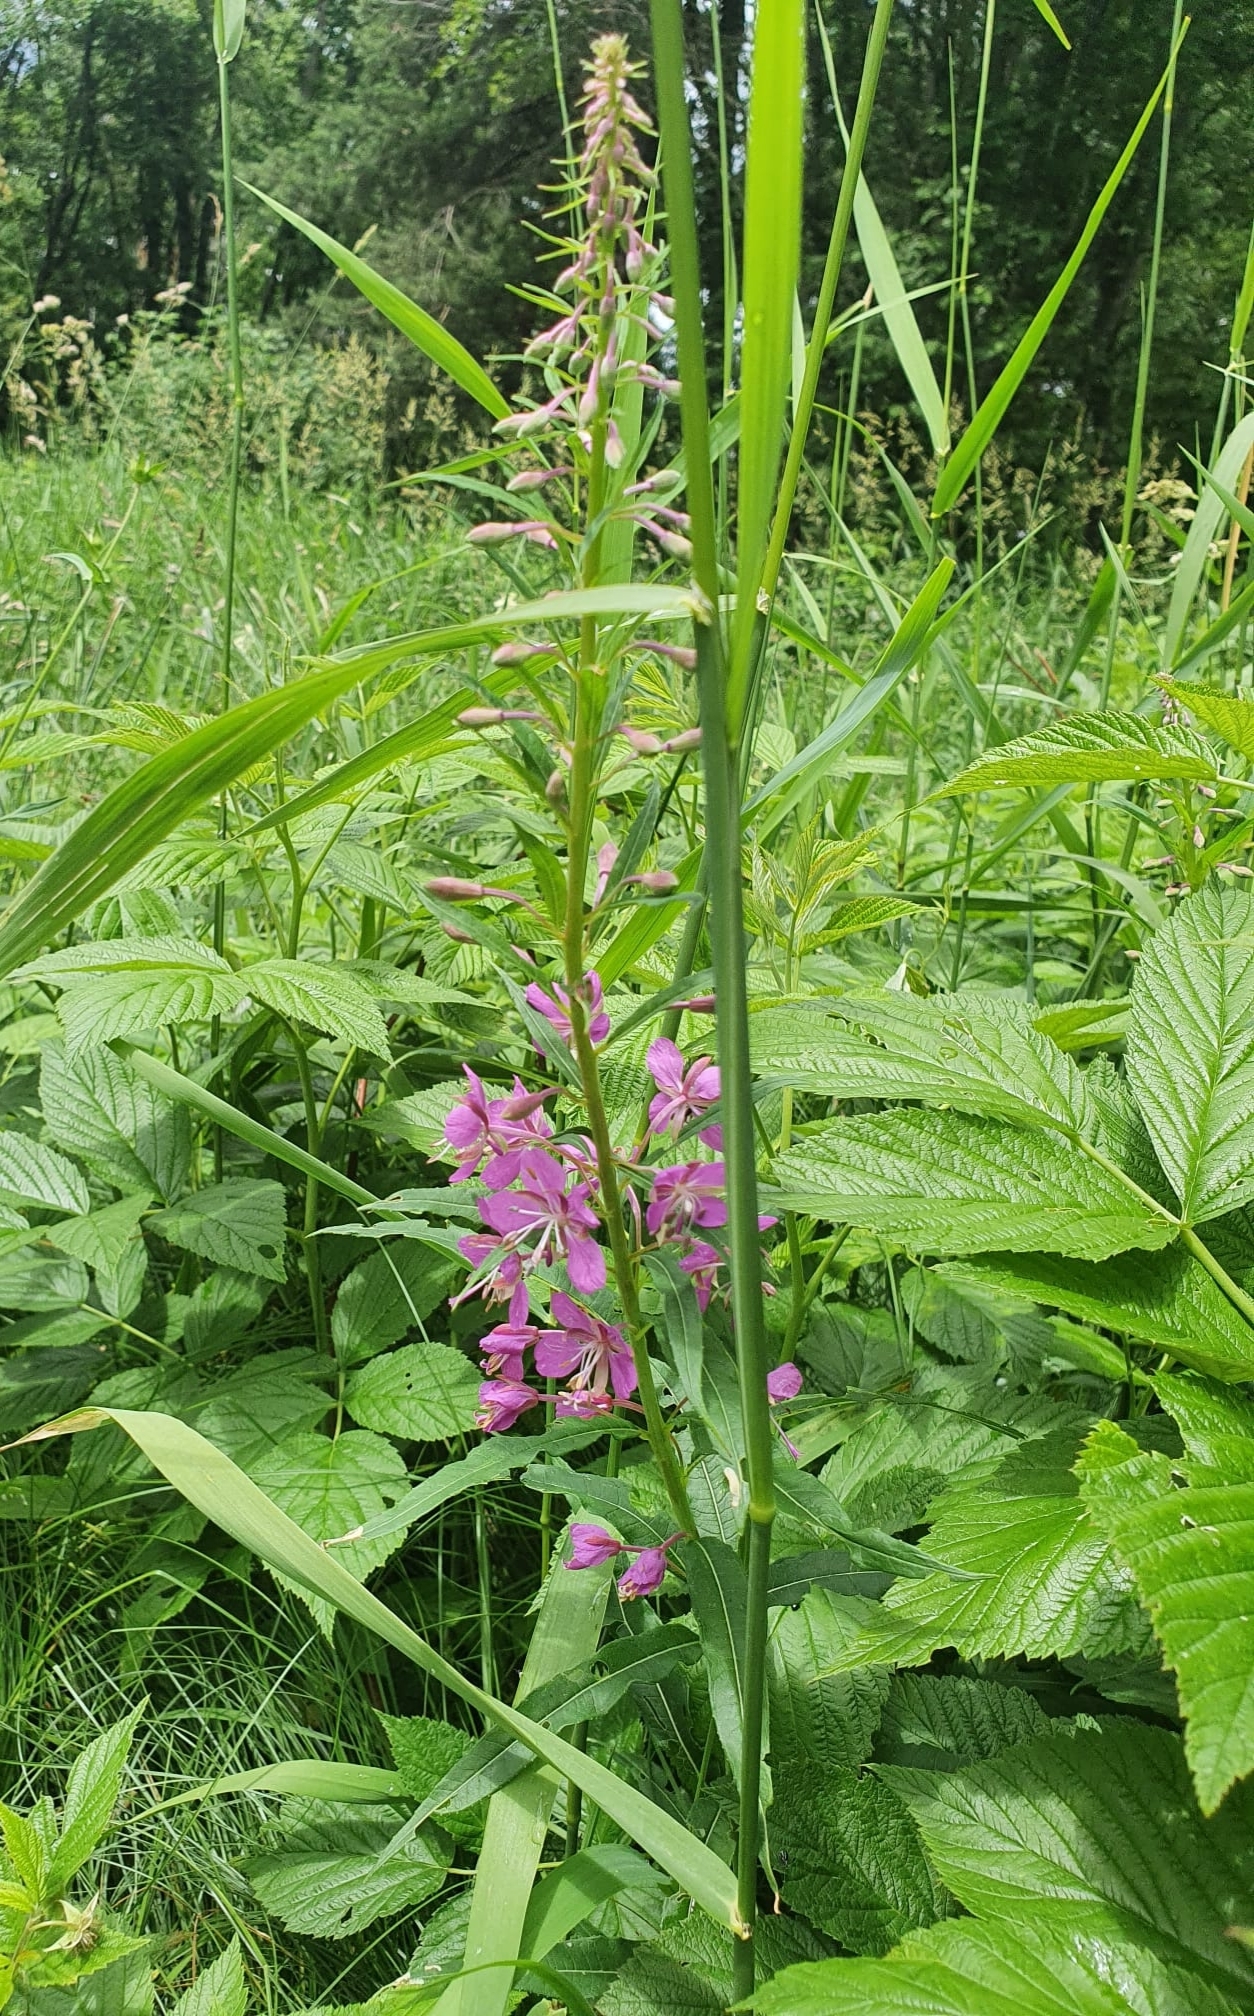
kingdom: Plantae
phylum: Tracheophyta
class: Magnoliopsida
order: Myrtales
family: Onagraceae
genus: Chamaenerion
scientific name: Chamaenerion angustifolium
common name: Fireweed
